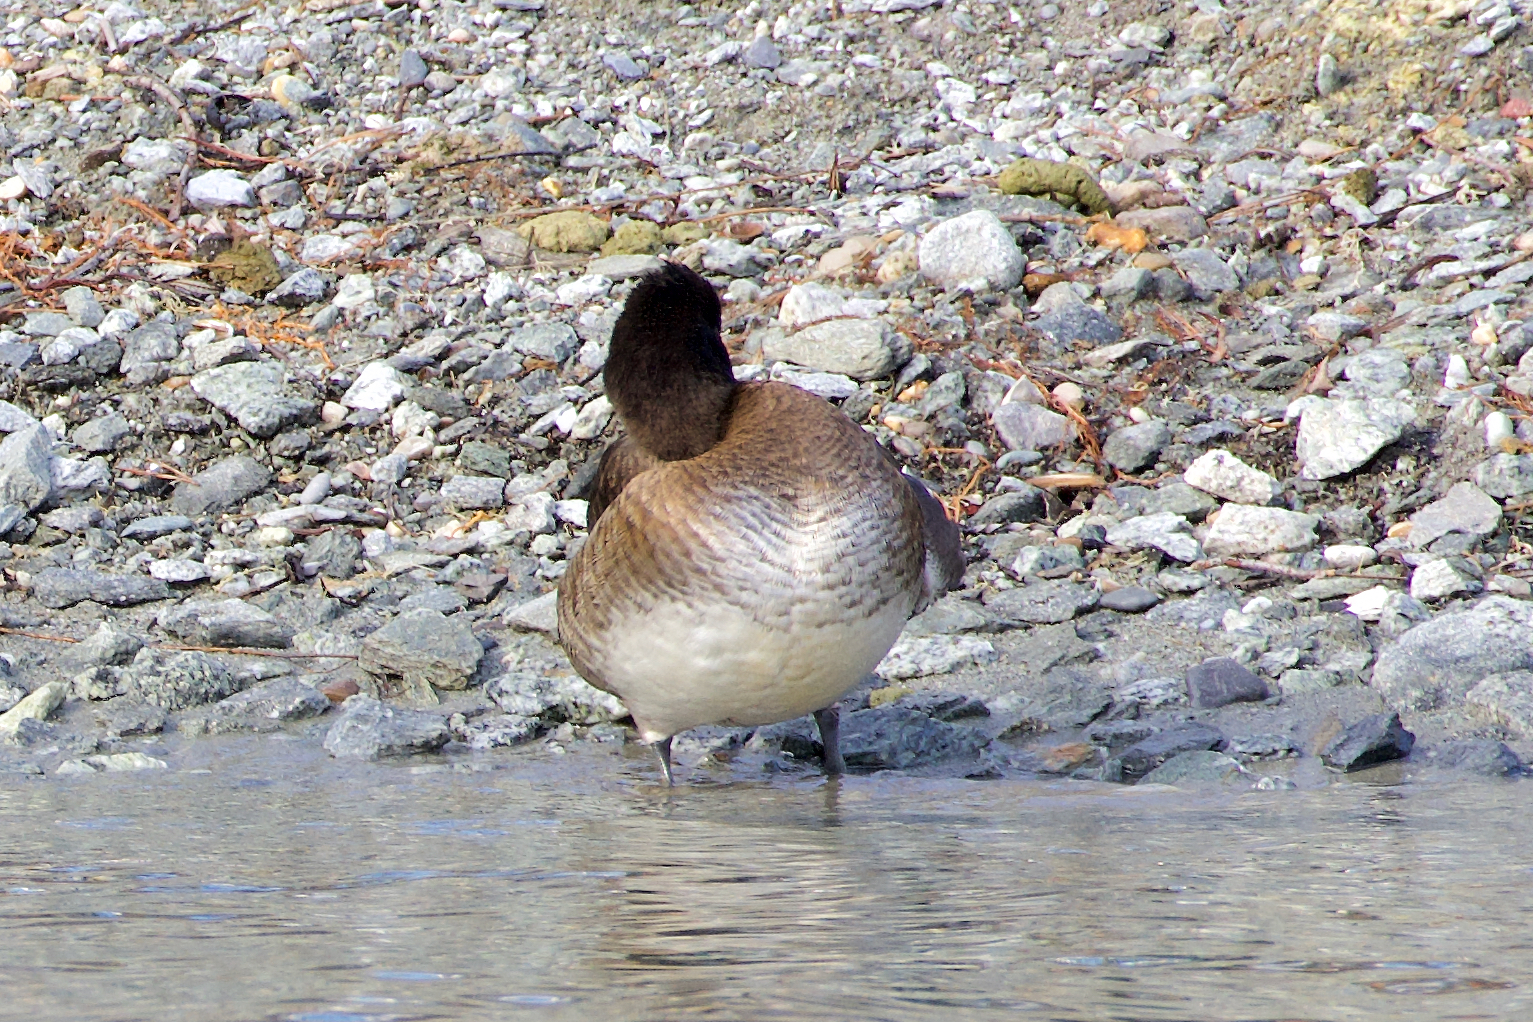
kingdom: Animalia
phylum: Chordata
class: Aves
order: Anseriformes
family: Anatidae
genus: Aythya
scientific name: Aythya fuligula
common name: Tufted duck
